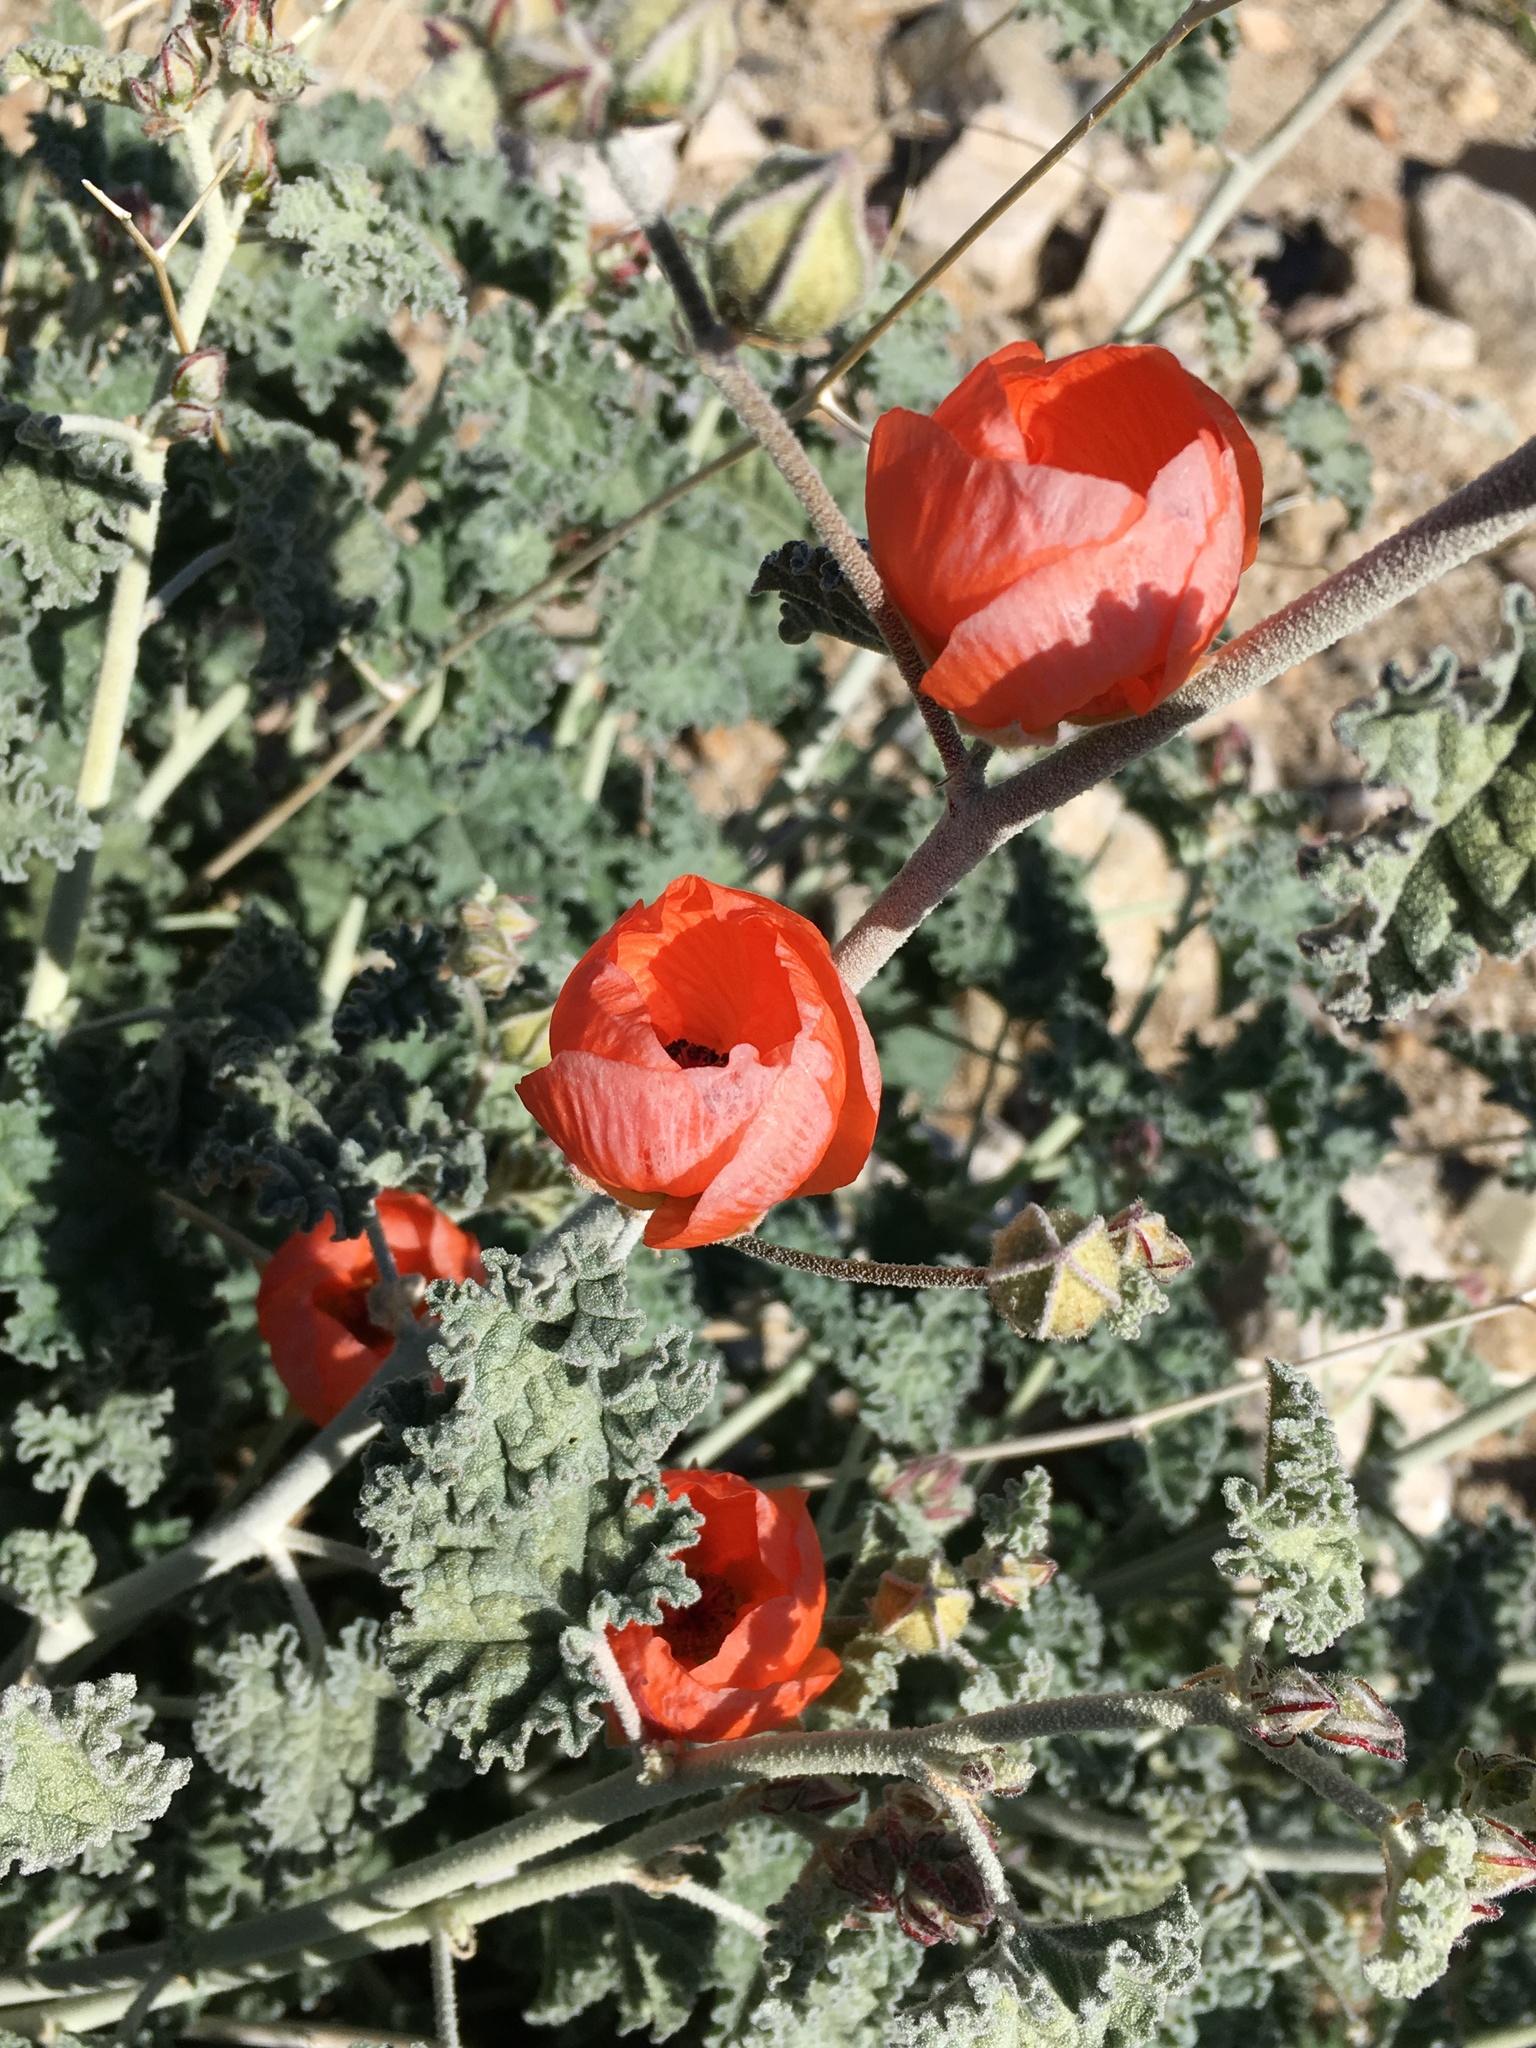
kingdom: Plantae
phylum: Tracheophyta
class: Magnoliopsida
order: Malvales
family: Malvaceae
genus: Sphaeralcea
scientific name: Sphaeralcea ambigua
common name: Apricot globe-mallow
